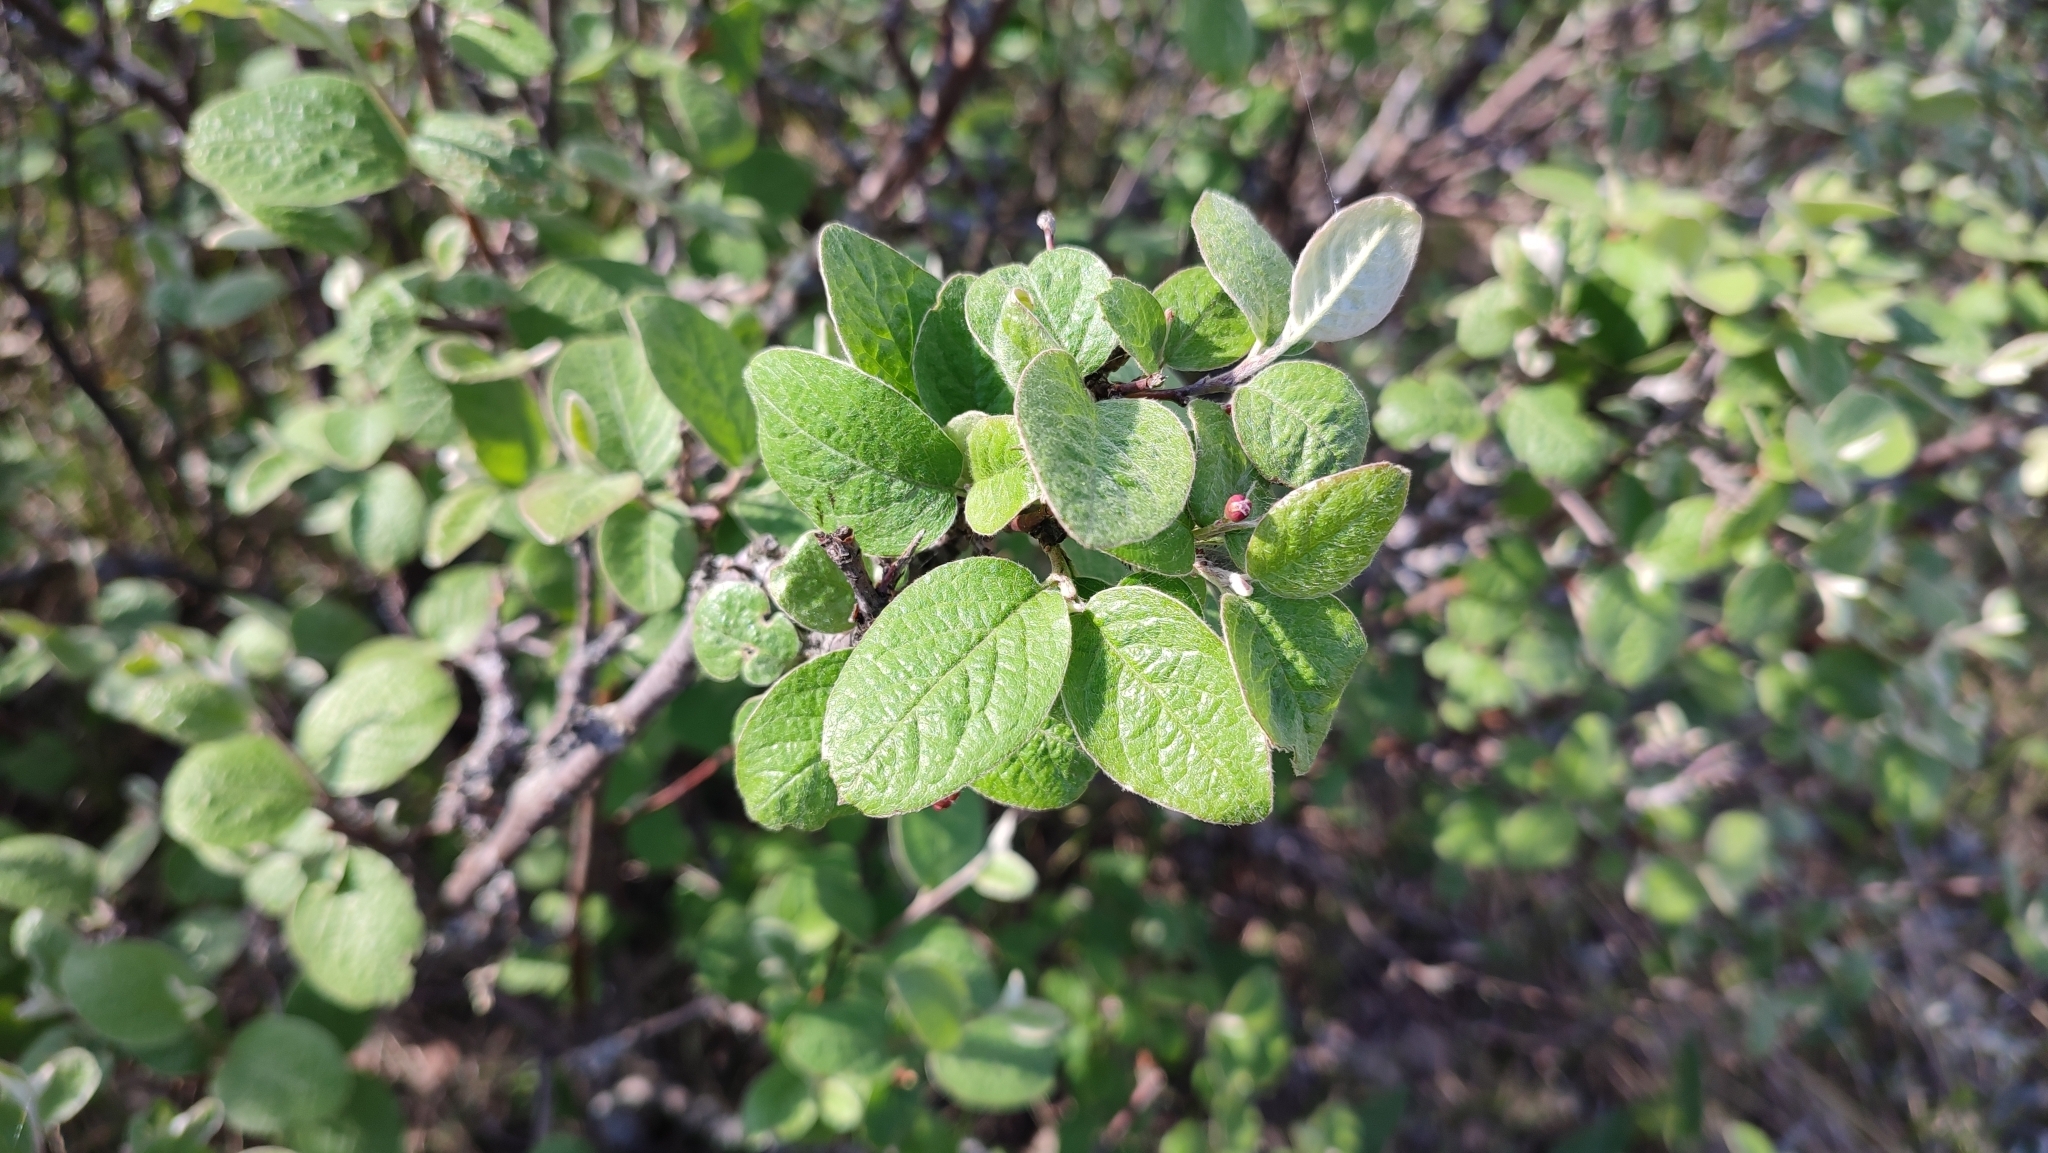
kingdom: Plantae
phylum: Tracheophyta
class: Magnoliopsida
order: Rosales
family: Rosaceae
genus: Cotoneaster
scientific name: Cotoneaster melanocarpus
